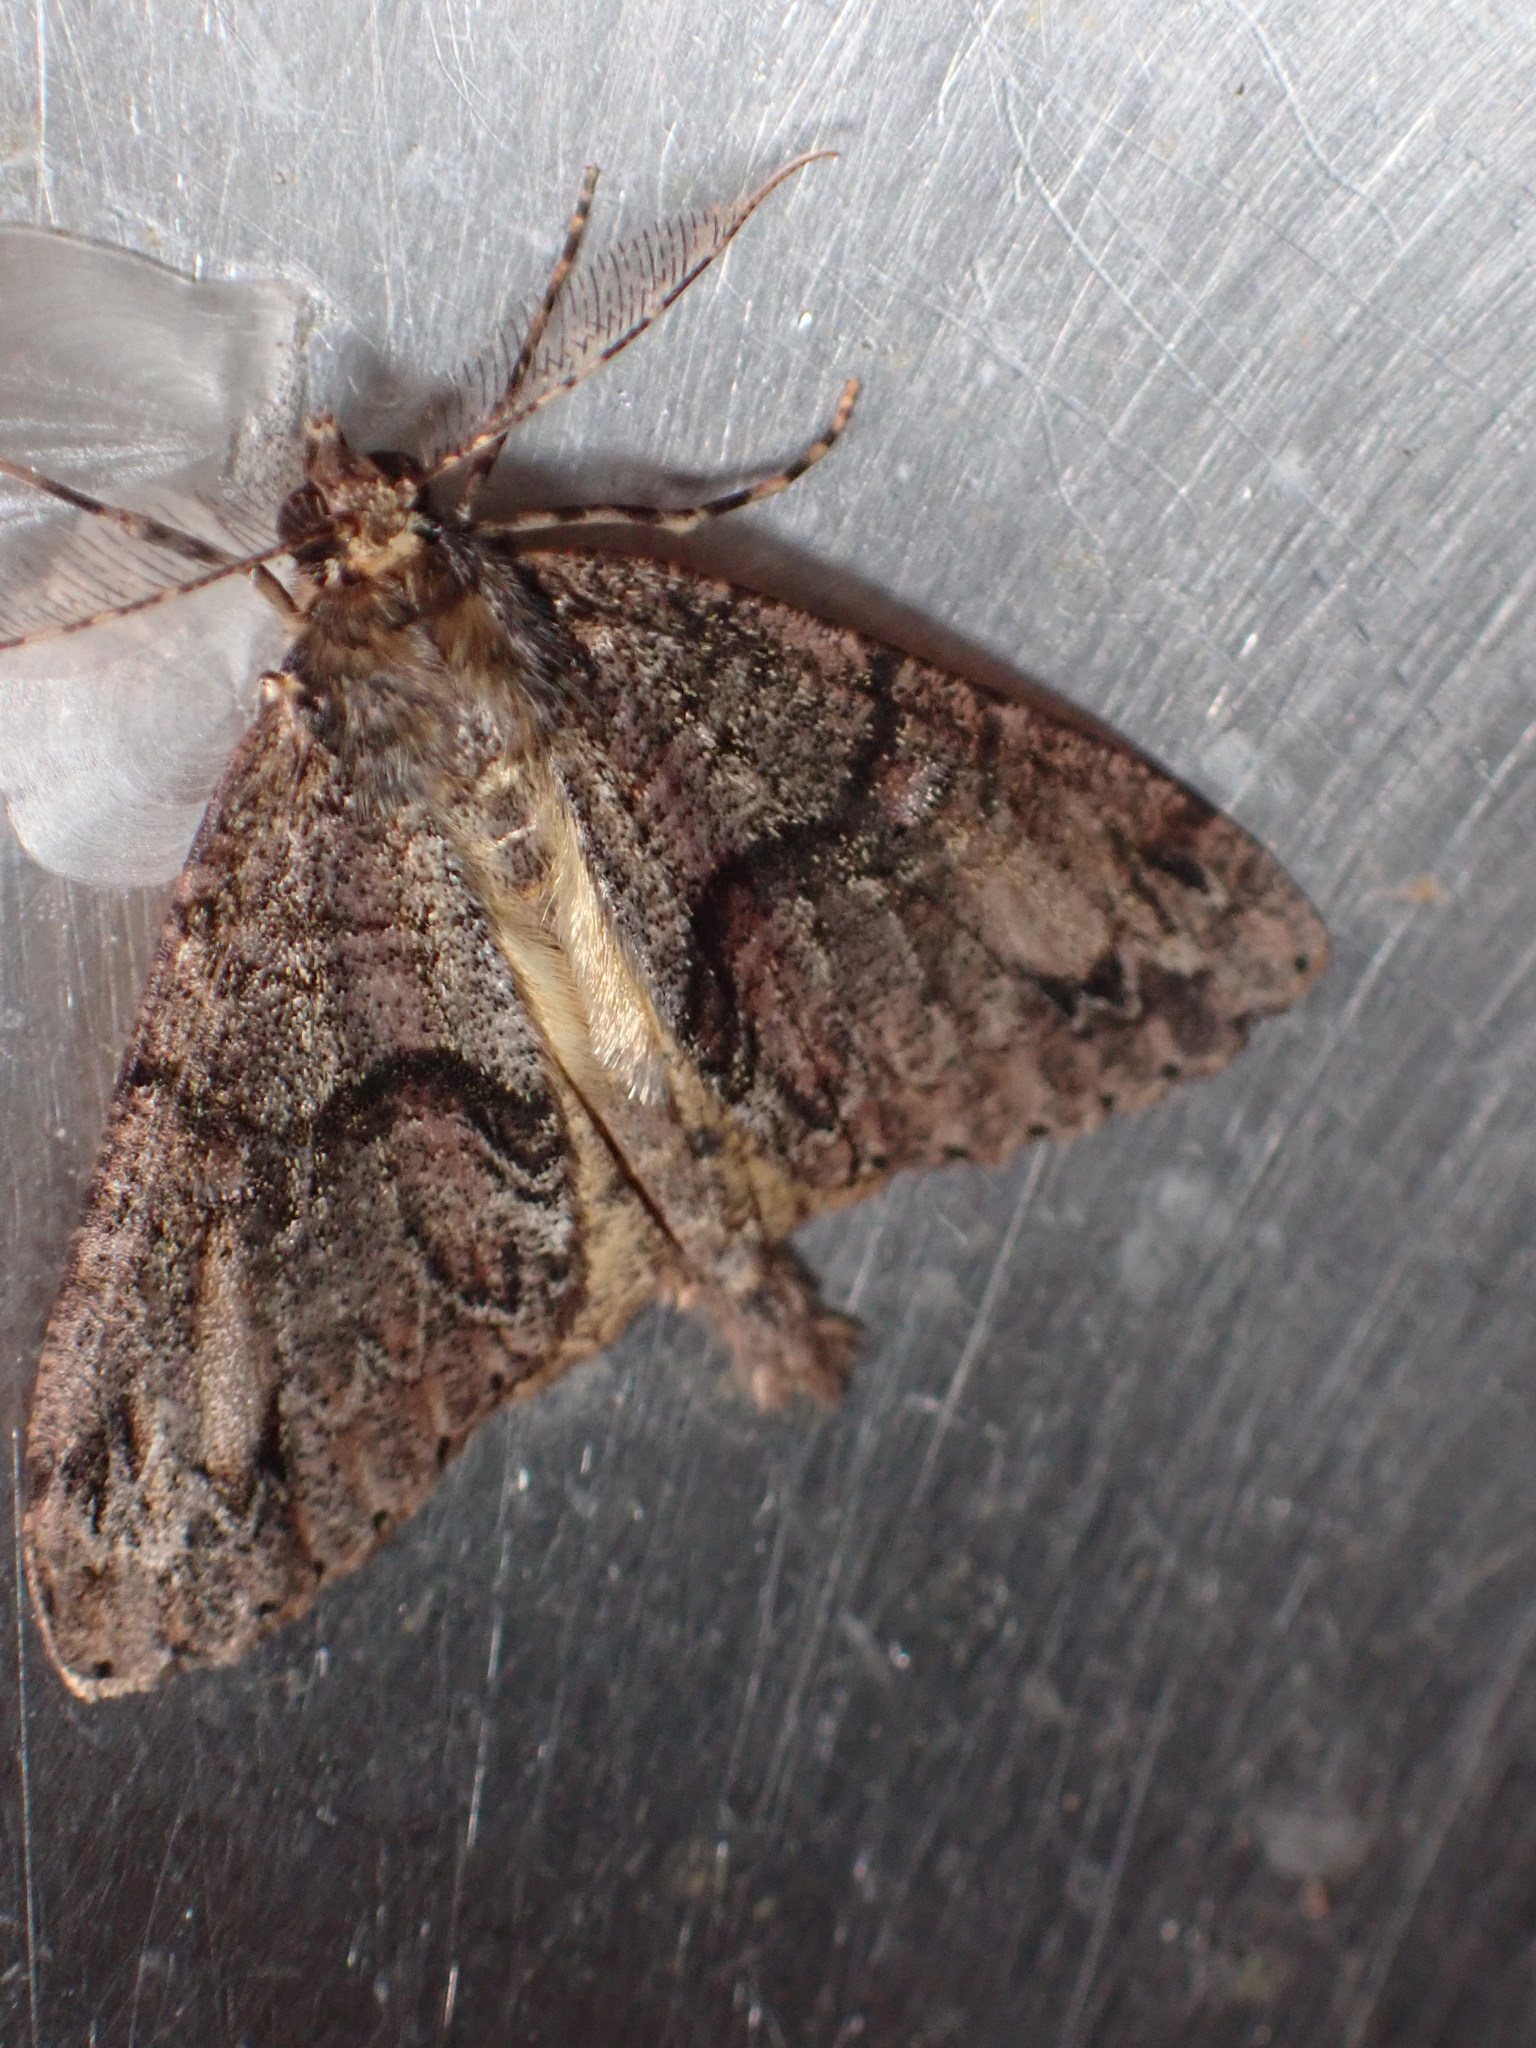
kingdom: Animalia
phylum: Arthropoda
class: Insecta
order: Lepidoptera
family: Geometridae
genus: Pseudocoremia
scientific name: Pseudocoremia suavis
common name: Common forest looper
